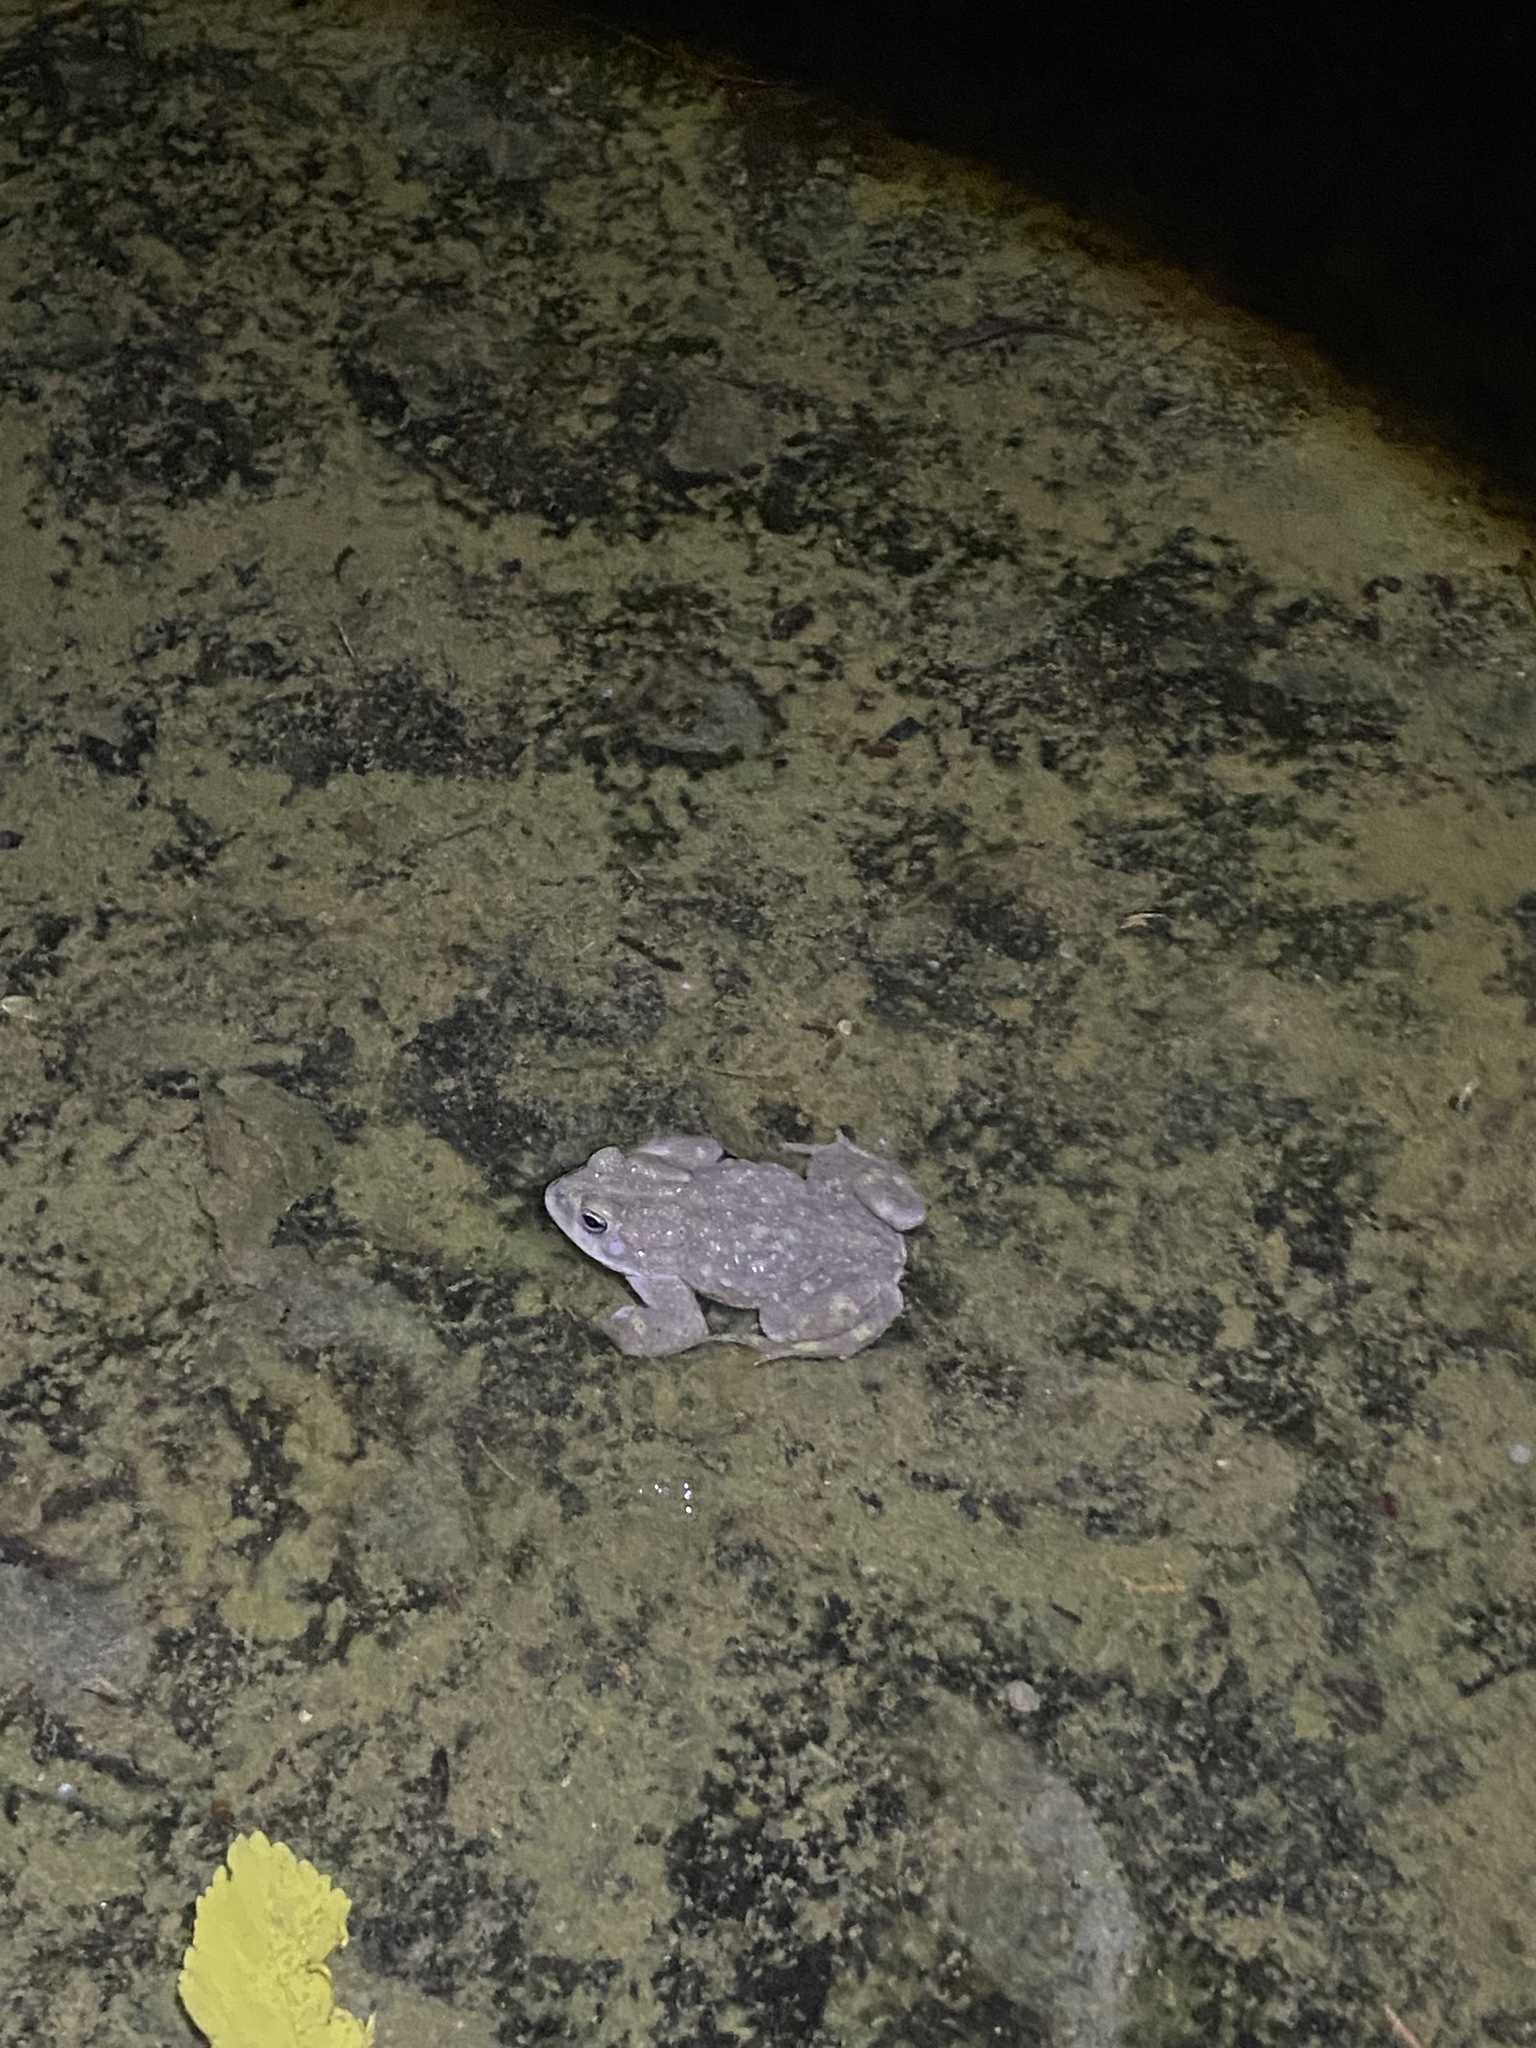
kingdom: Animalia
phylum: Chordata
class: Amphibia
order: Anura
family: Bufonidae
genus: Bufotes
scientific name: Bufotes viridis
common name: European green toad
